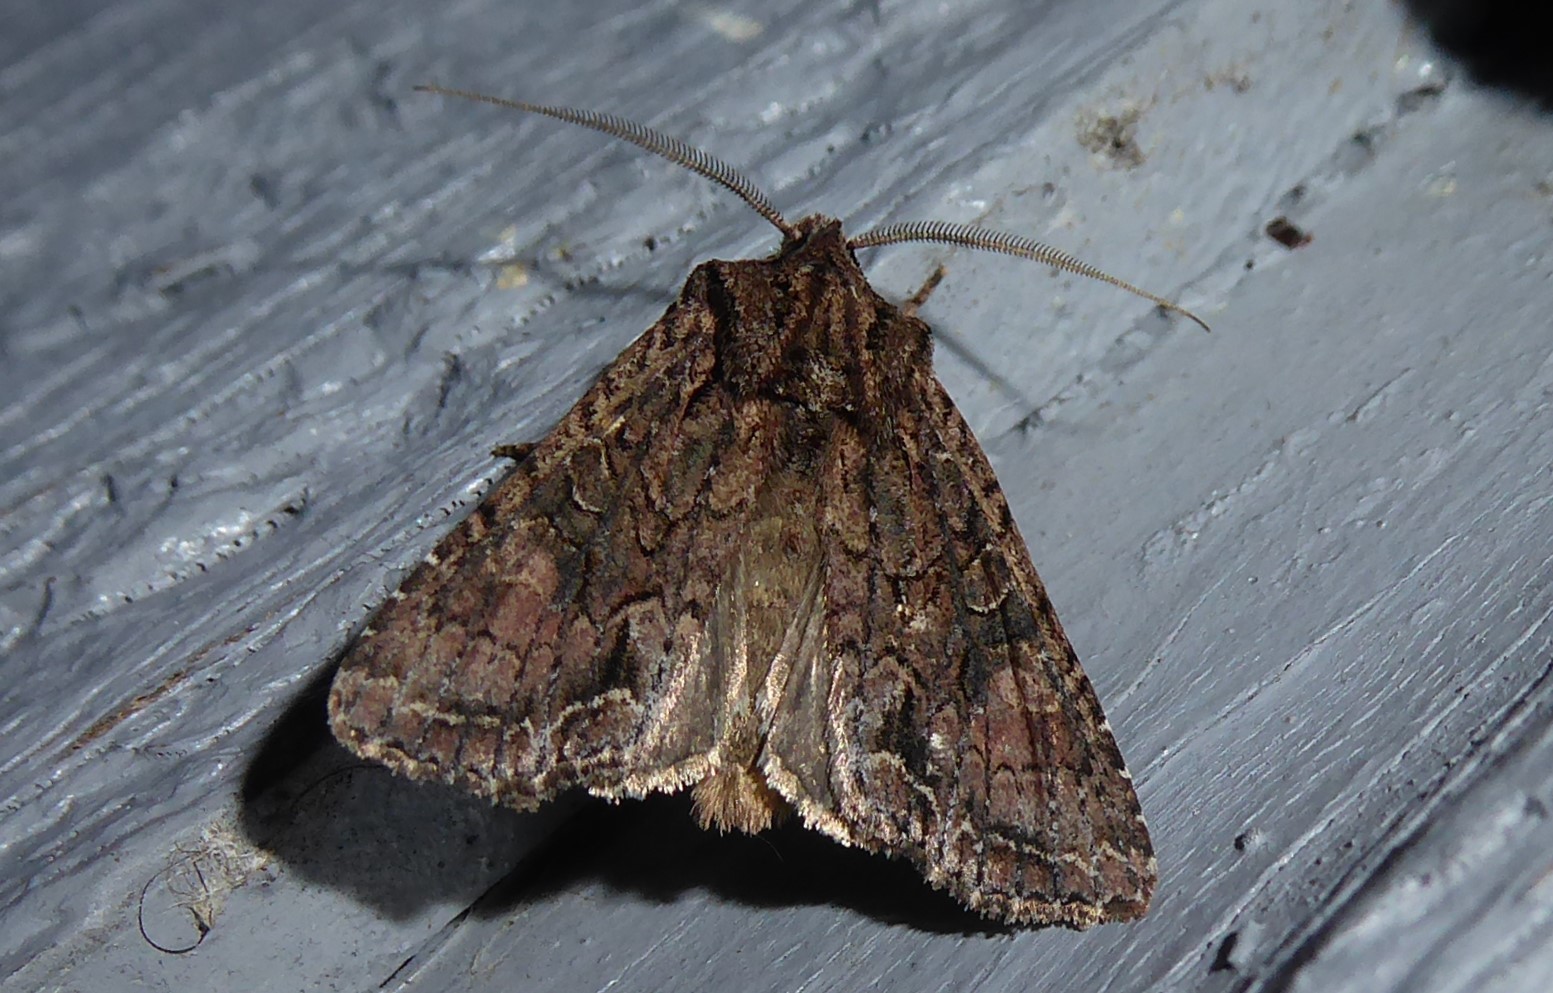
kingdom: Animalia
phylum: Arthropoda
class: Insecta
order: Lepidoptera
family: Noctuidae
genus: Ichneutica
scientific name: Ichneutica mutans
